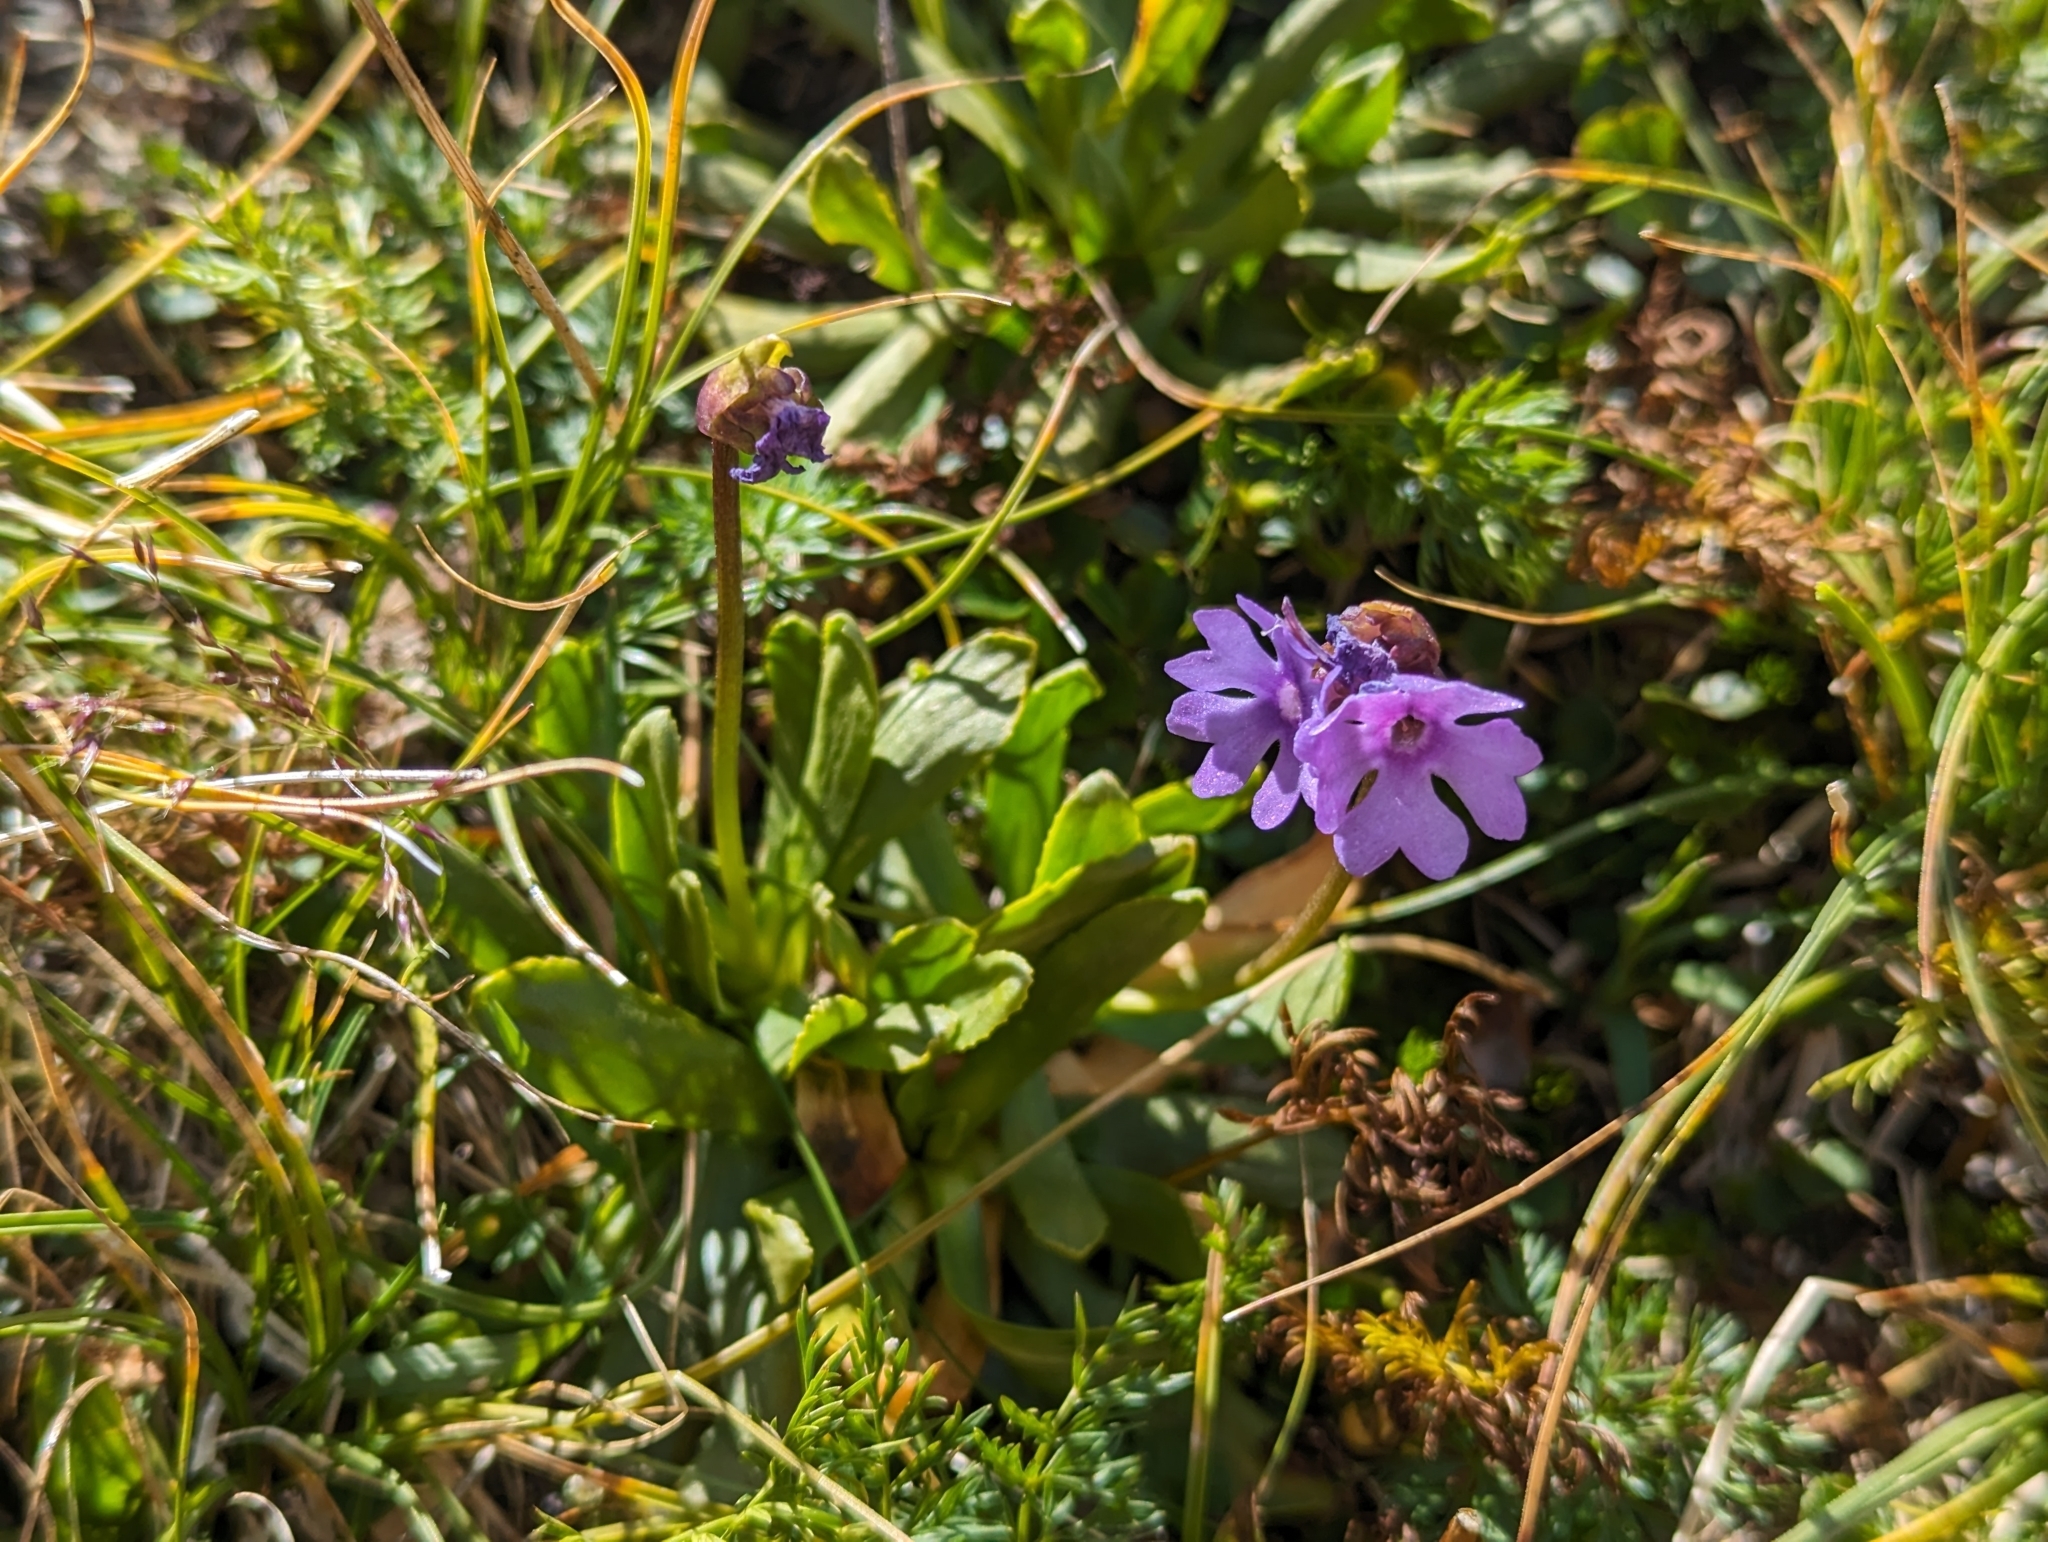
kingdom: Plantae
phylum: Tracheophyta
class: Magnoliopsida
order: Ericales
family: Primulaceae
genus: Primula
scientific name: Primula glutinosa
